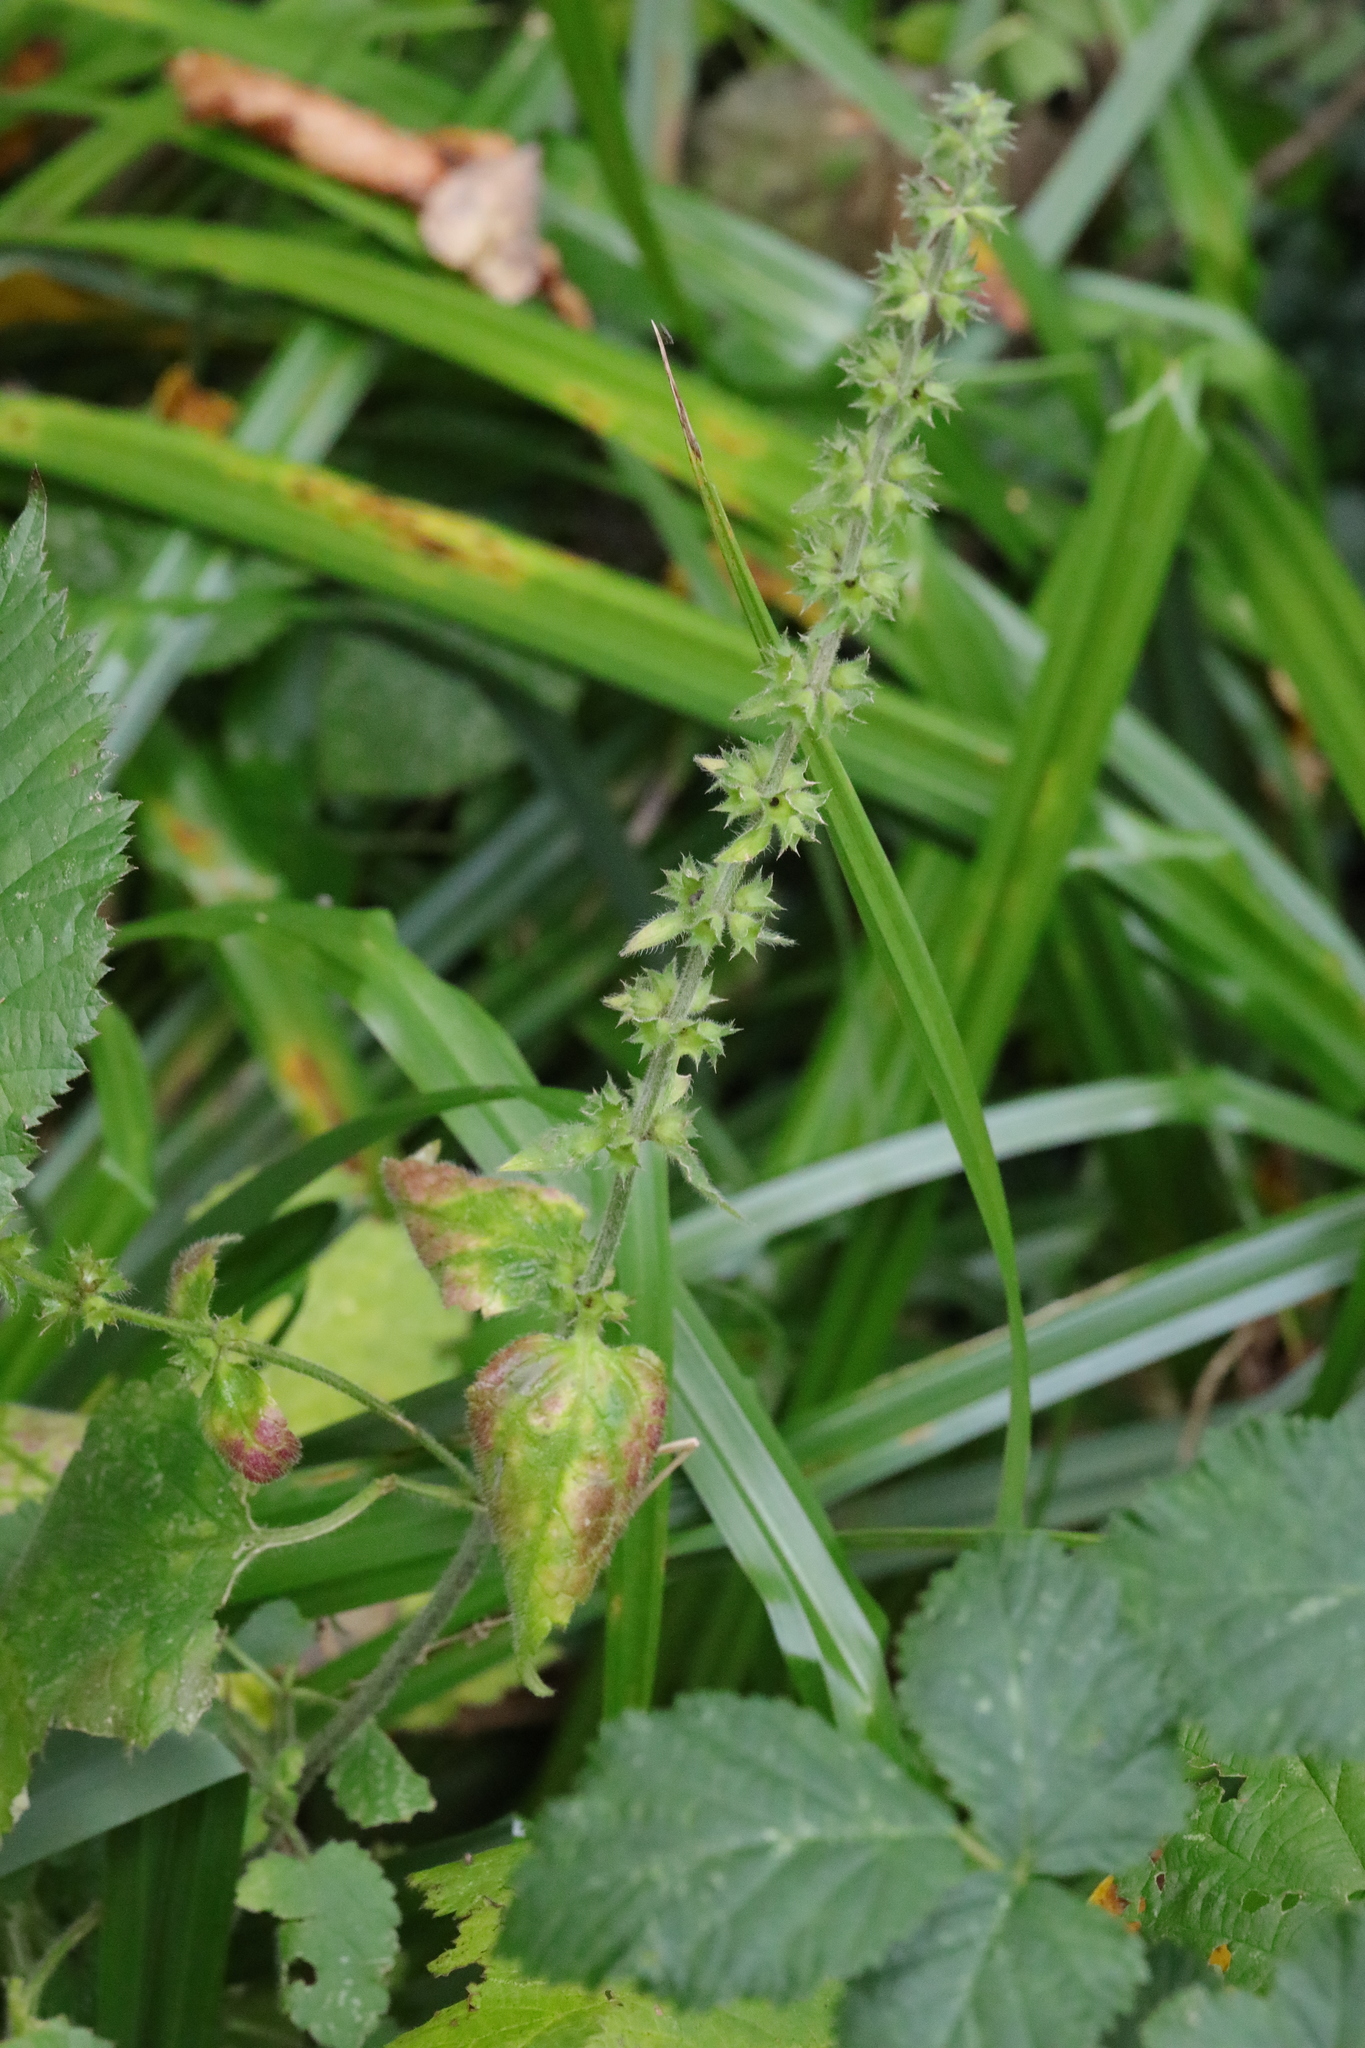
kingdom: Plantae
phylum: Tracheophyta
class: Magnoliopsida
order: Lamiales
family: Lamiaceae
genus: Stachys
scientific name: Stachys sylvatica
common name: Hedge woundwort
